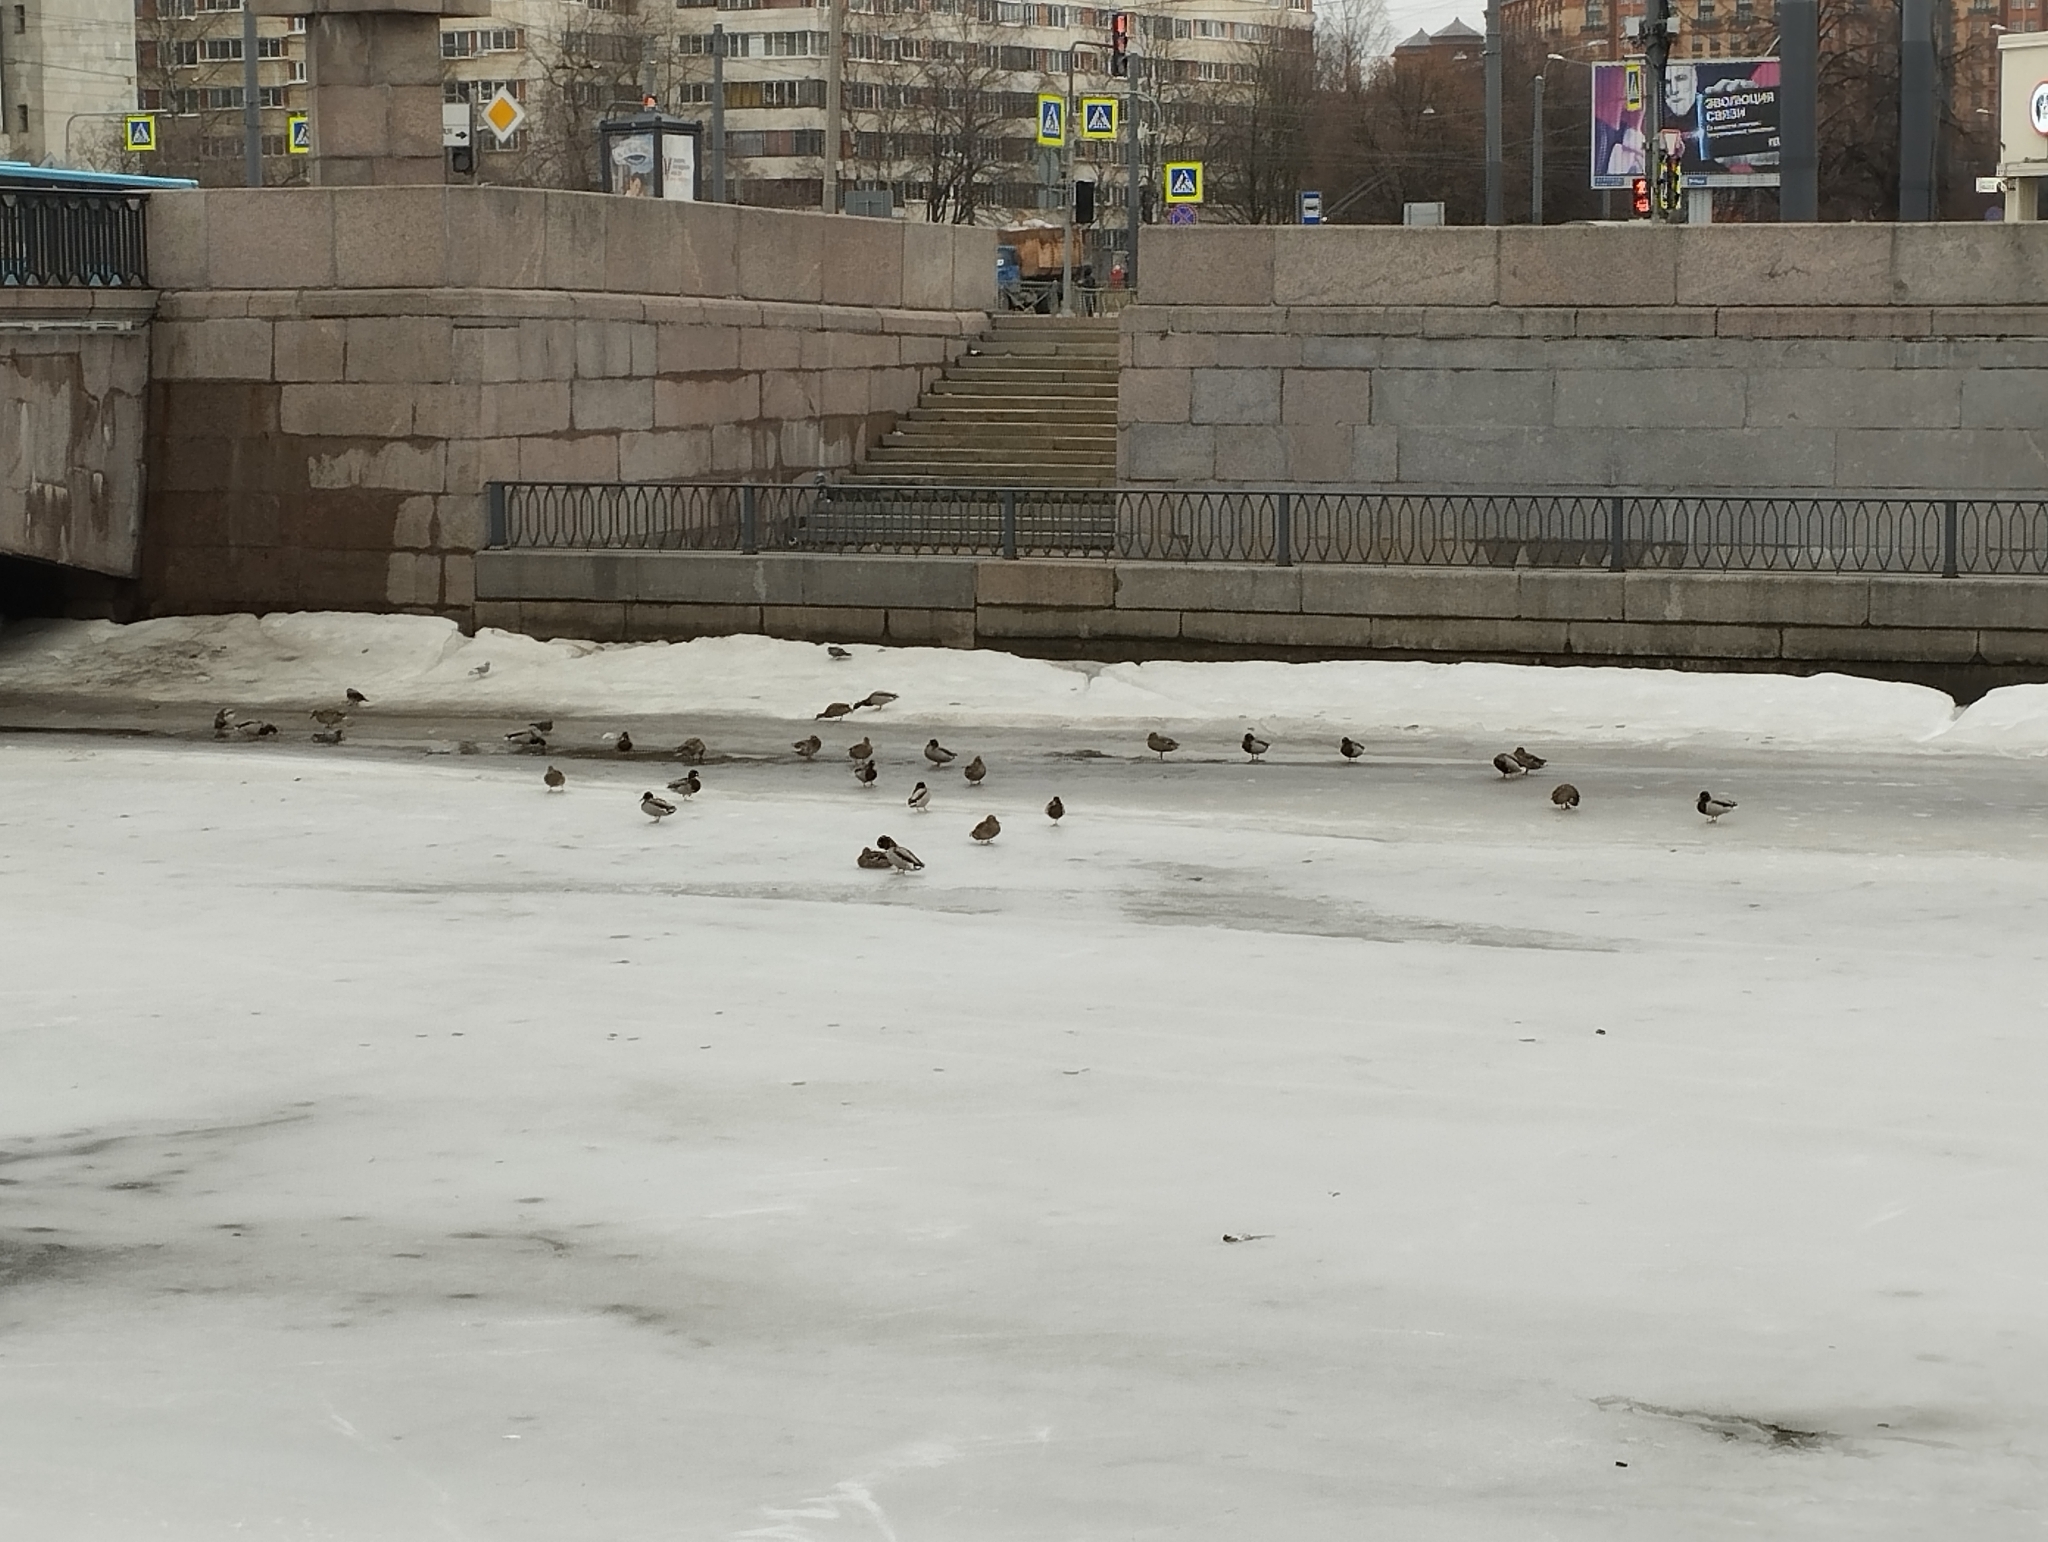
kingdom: Animalia
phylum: Chordata
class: Aves
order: Anseriformes
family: Anatidae
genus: Anas
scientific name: Anas platyrhynchos
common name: Mallard
